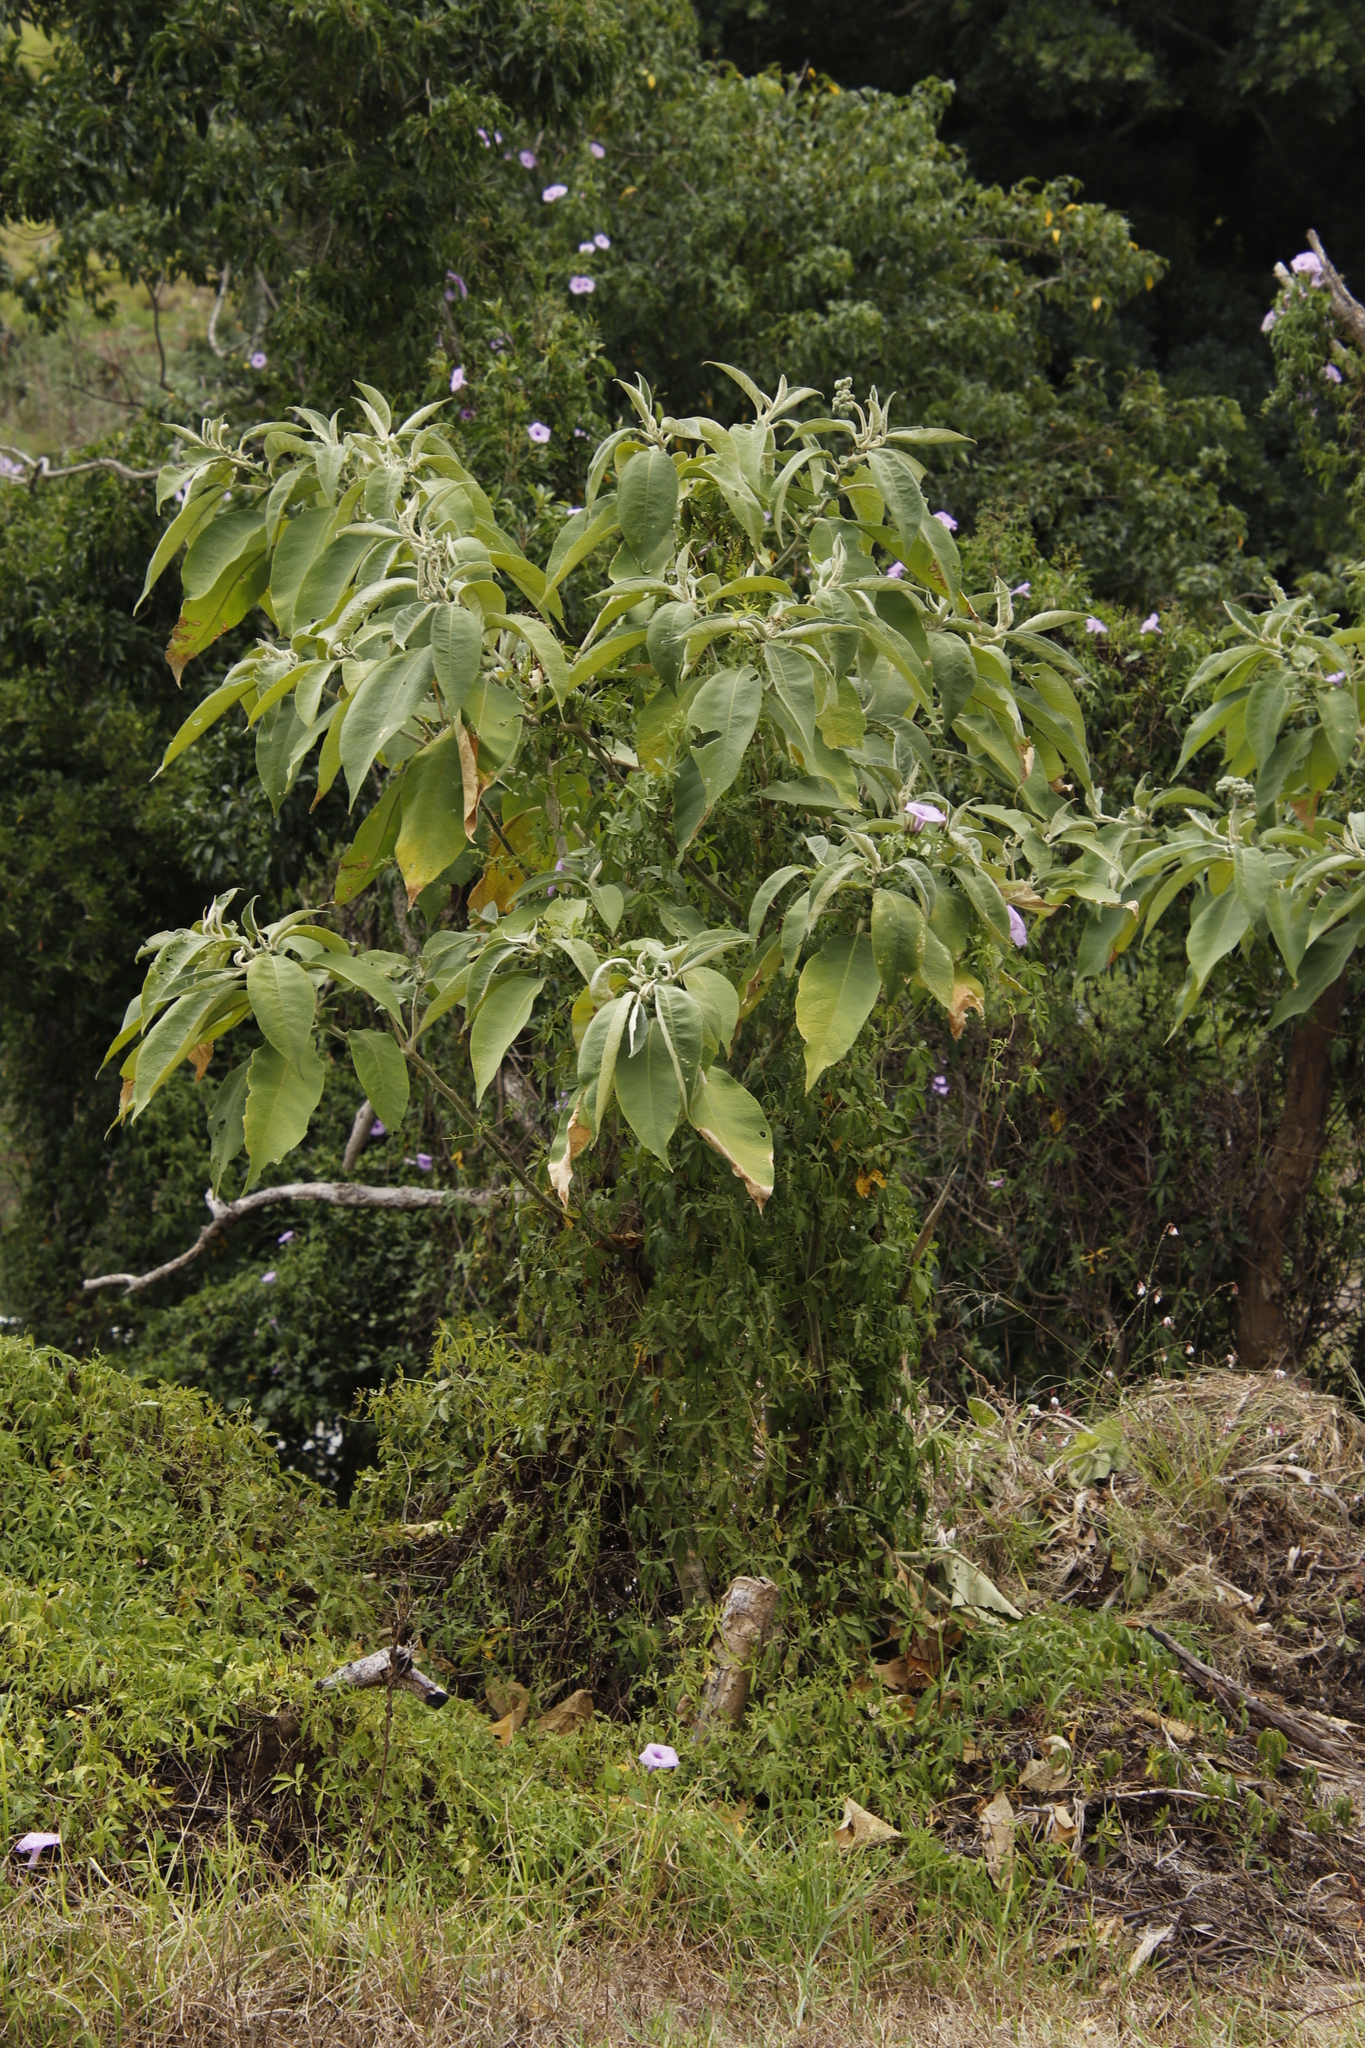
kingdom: Plantae
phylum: Tracheophyta
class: Magnoliopsida
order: Solanales
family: Solanaceae
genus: Solanum
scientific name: Solanum mauritianum
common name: Earleaf nightshade
